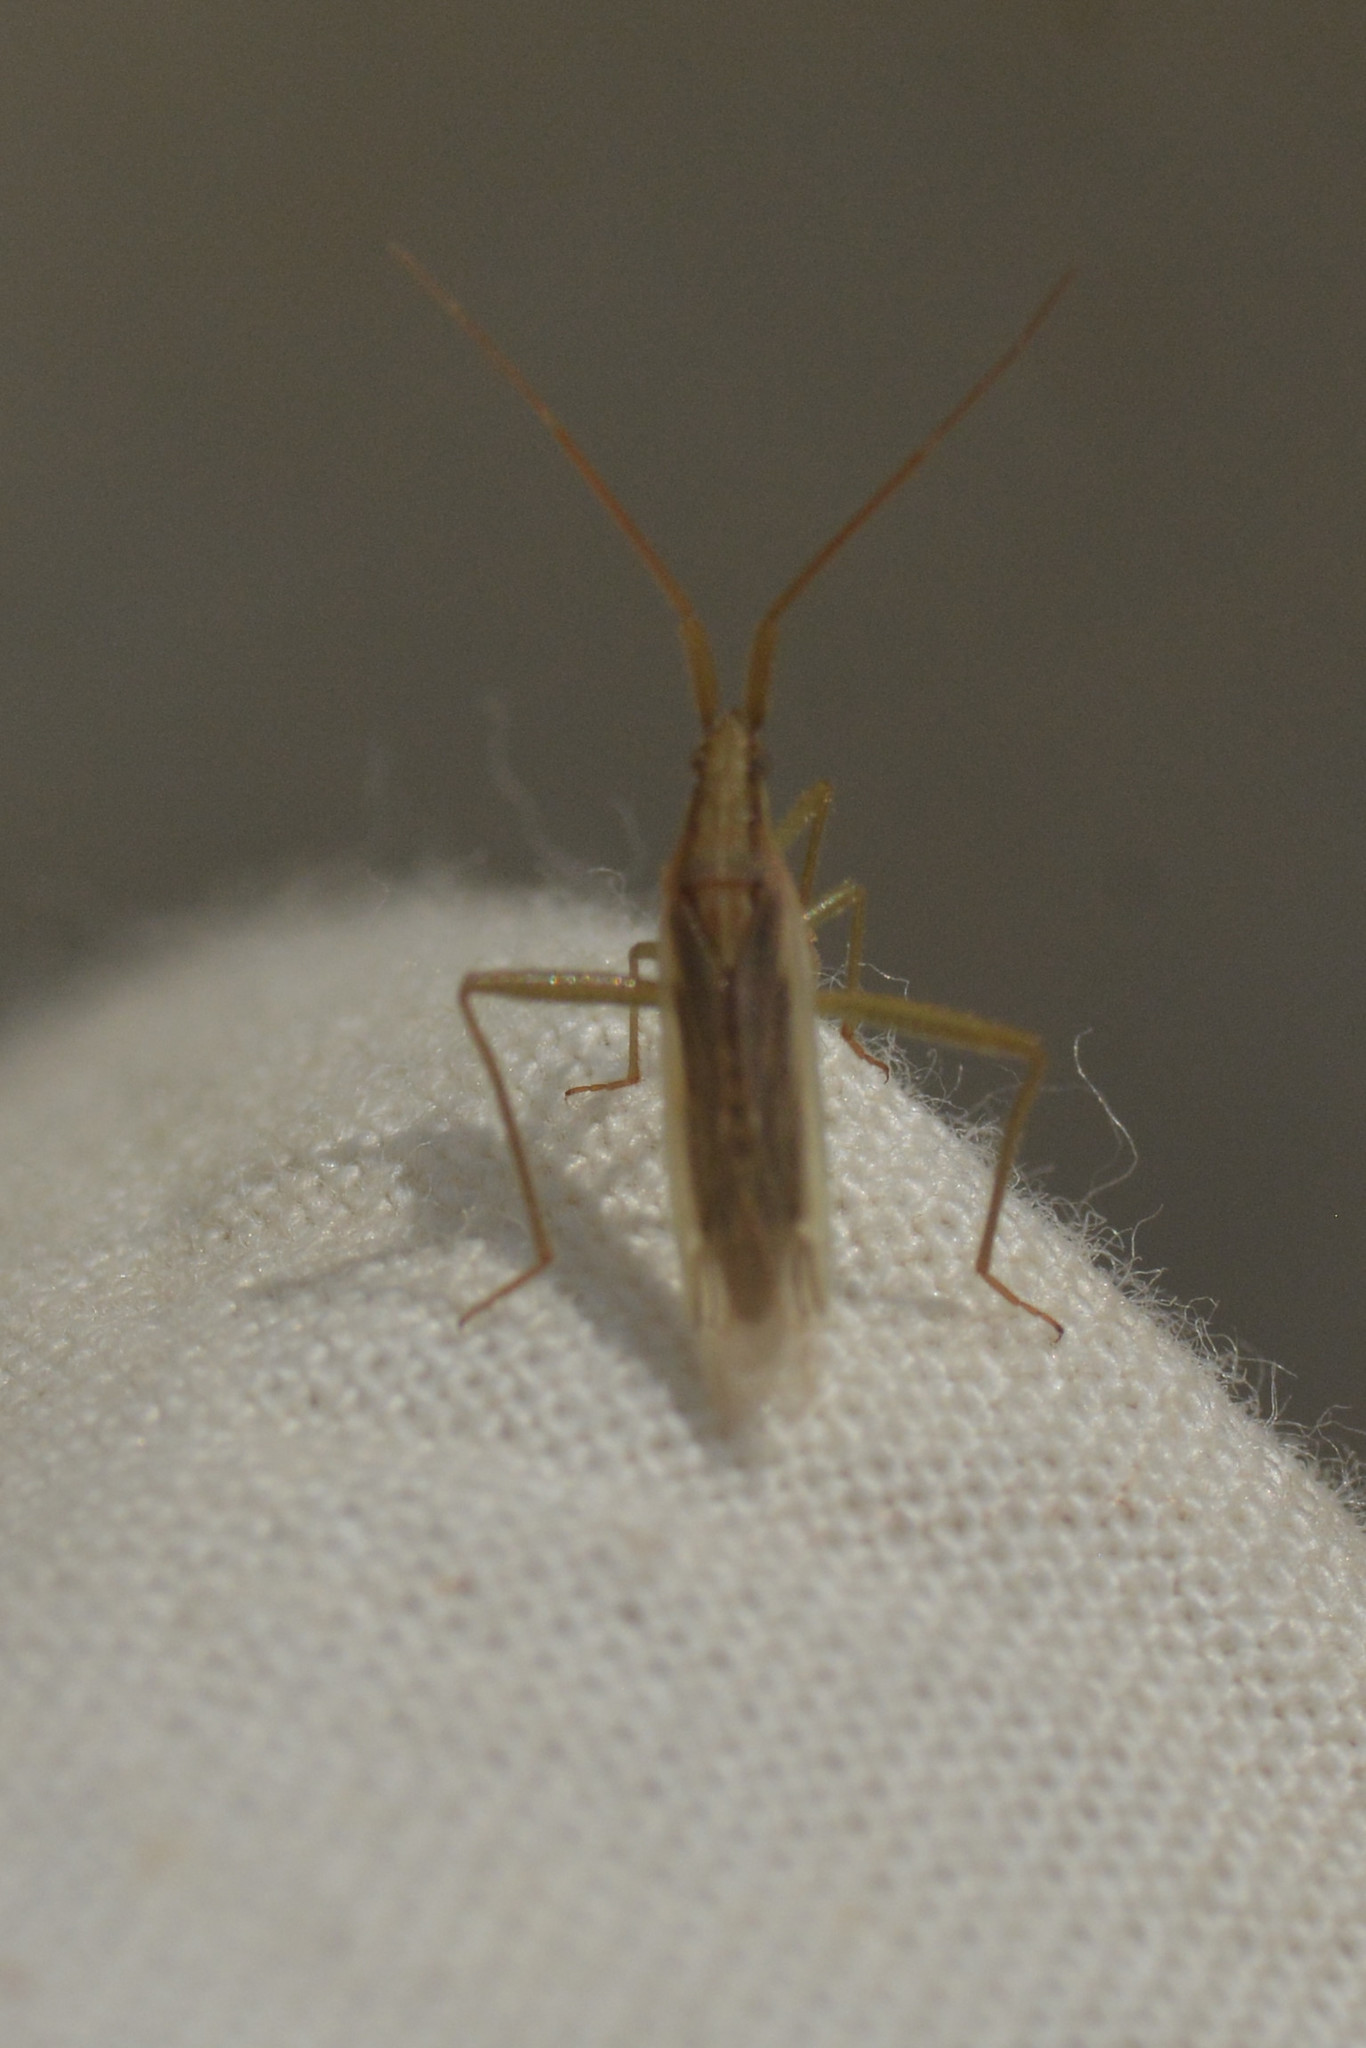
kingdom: Animalia
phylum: Arthropoda
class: Insecta
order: Hemiptera
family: Miridae
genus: Stenodema
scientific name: Stenodema laevigata
